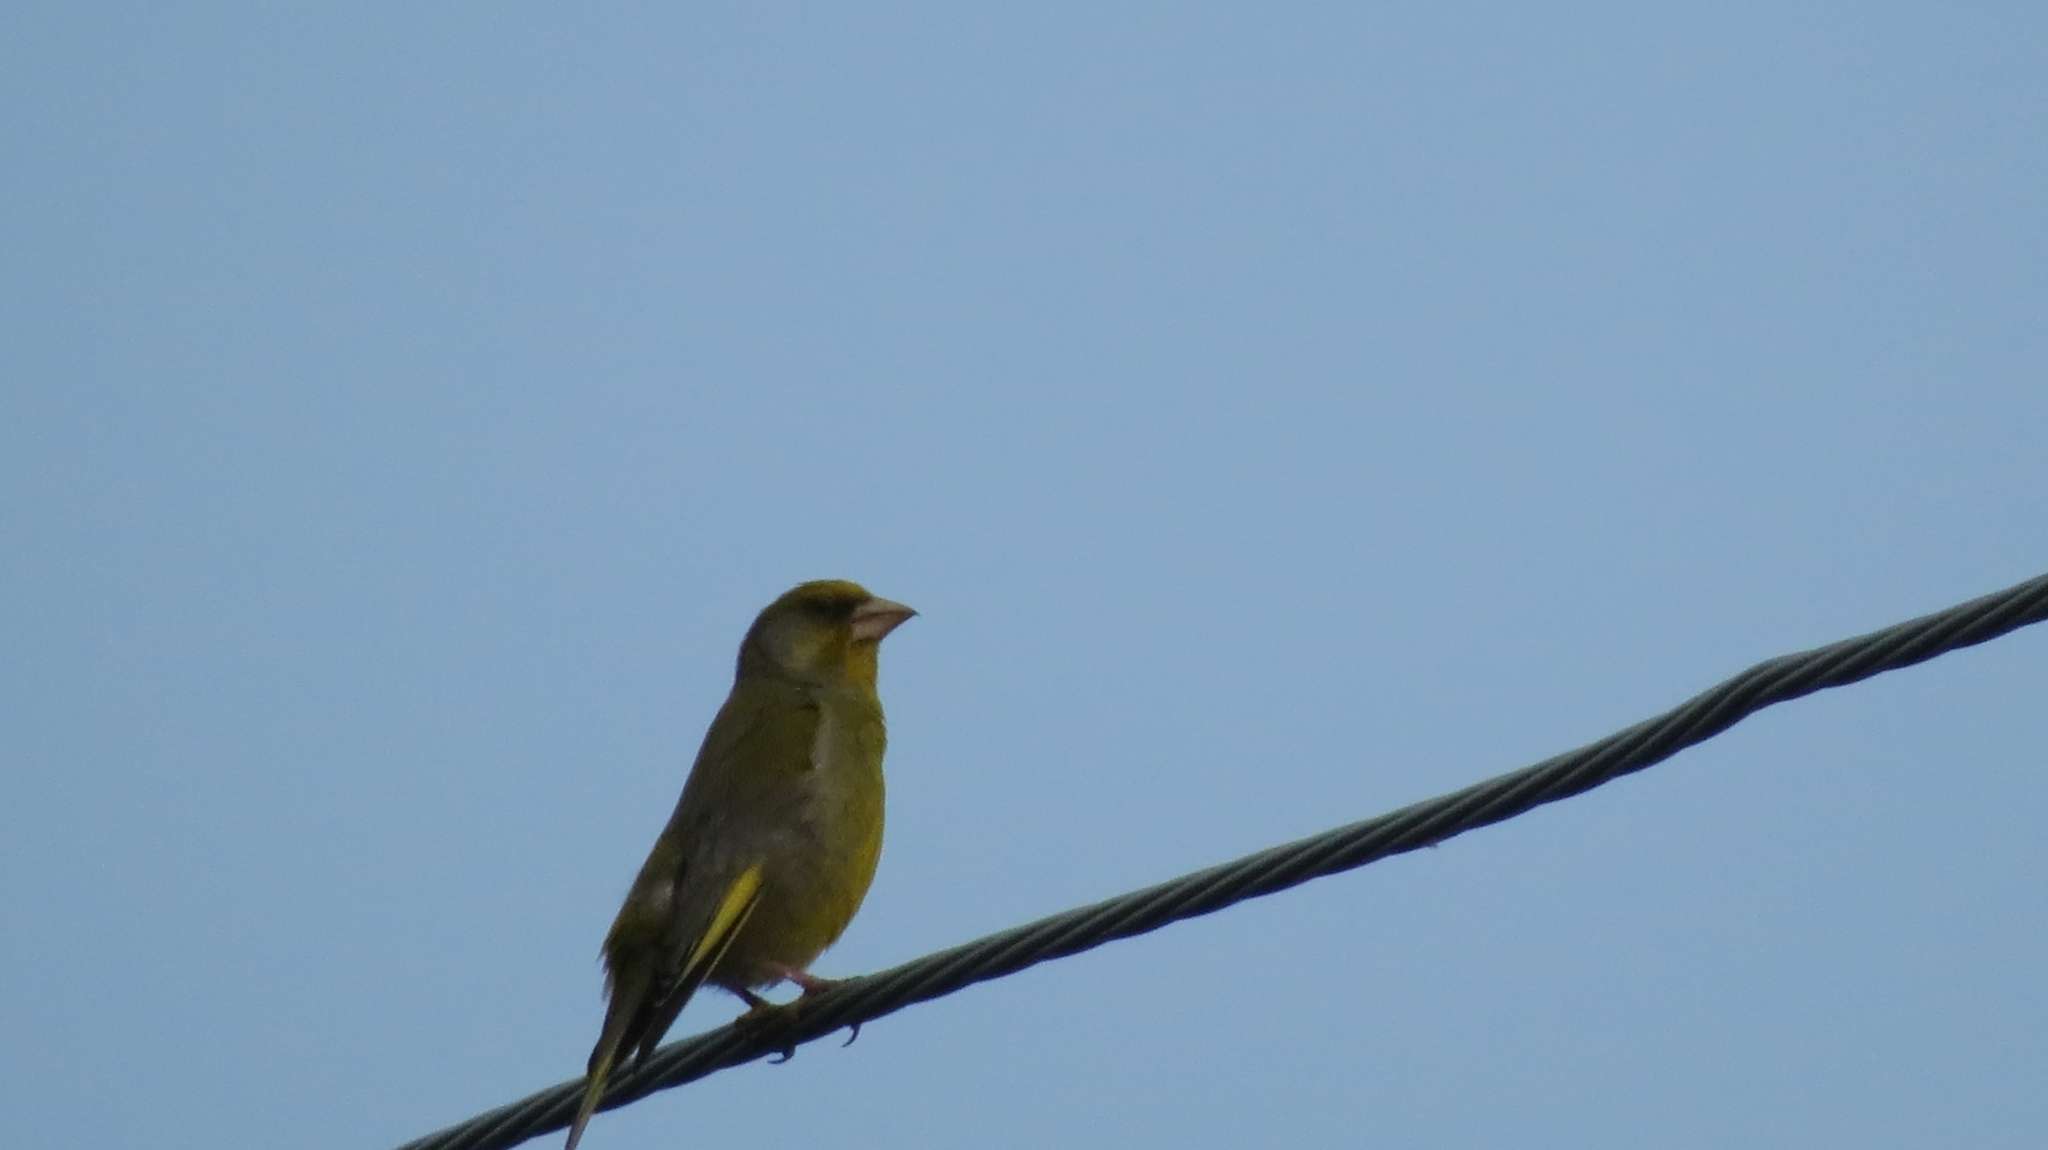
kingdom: Plantae
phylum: Tracheophyta
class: Liliopsida
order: Poales
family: Poaceae
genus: Chloris
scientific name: Chloris chloris
